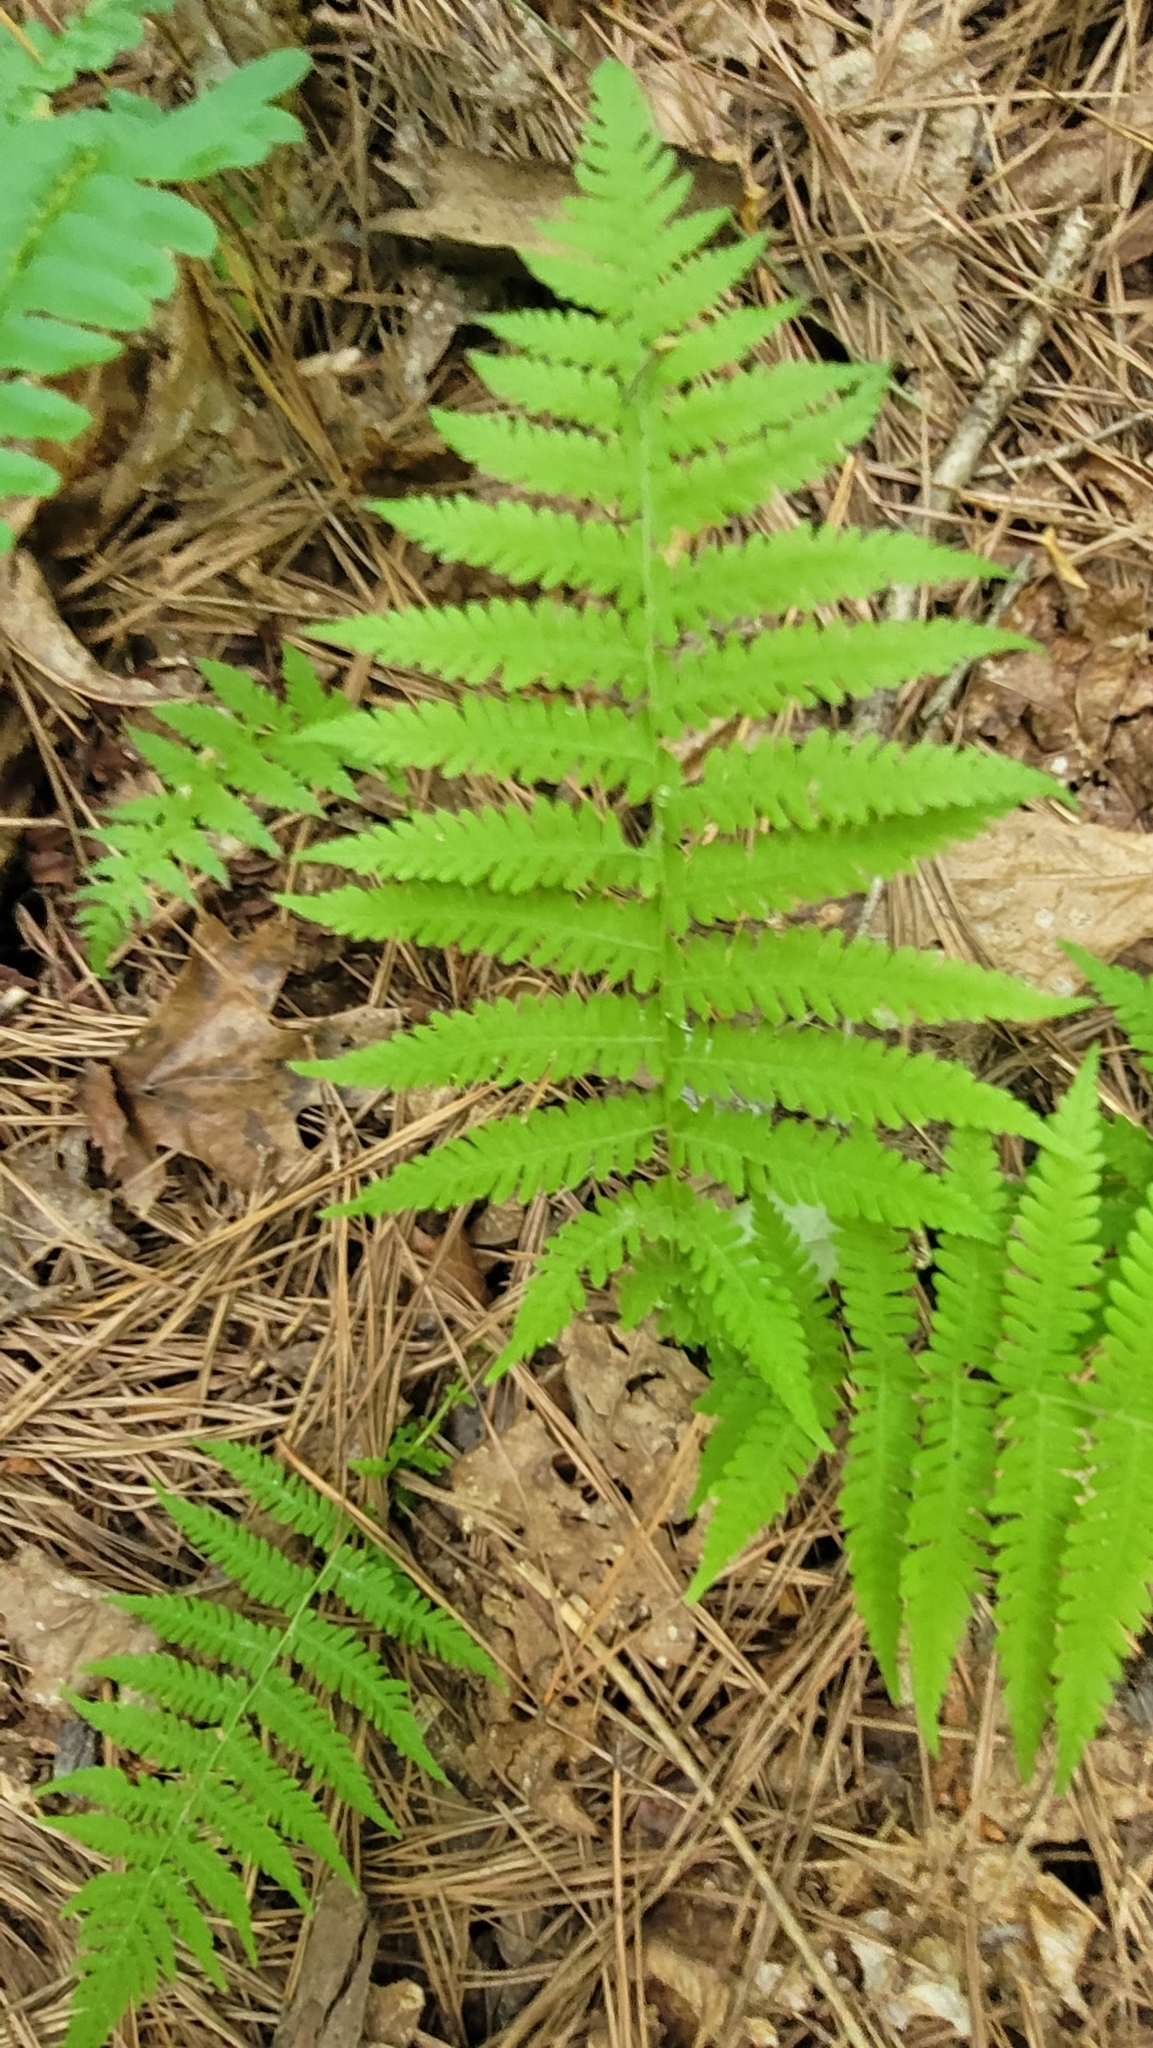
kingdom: Plantae
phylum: Tracheophyta
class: Polypodiopsida
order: Polypodiales
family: Thelypteridaceae
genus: Amauropelta
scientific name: Amauropelta noveboracensis
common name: New york fern
